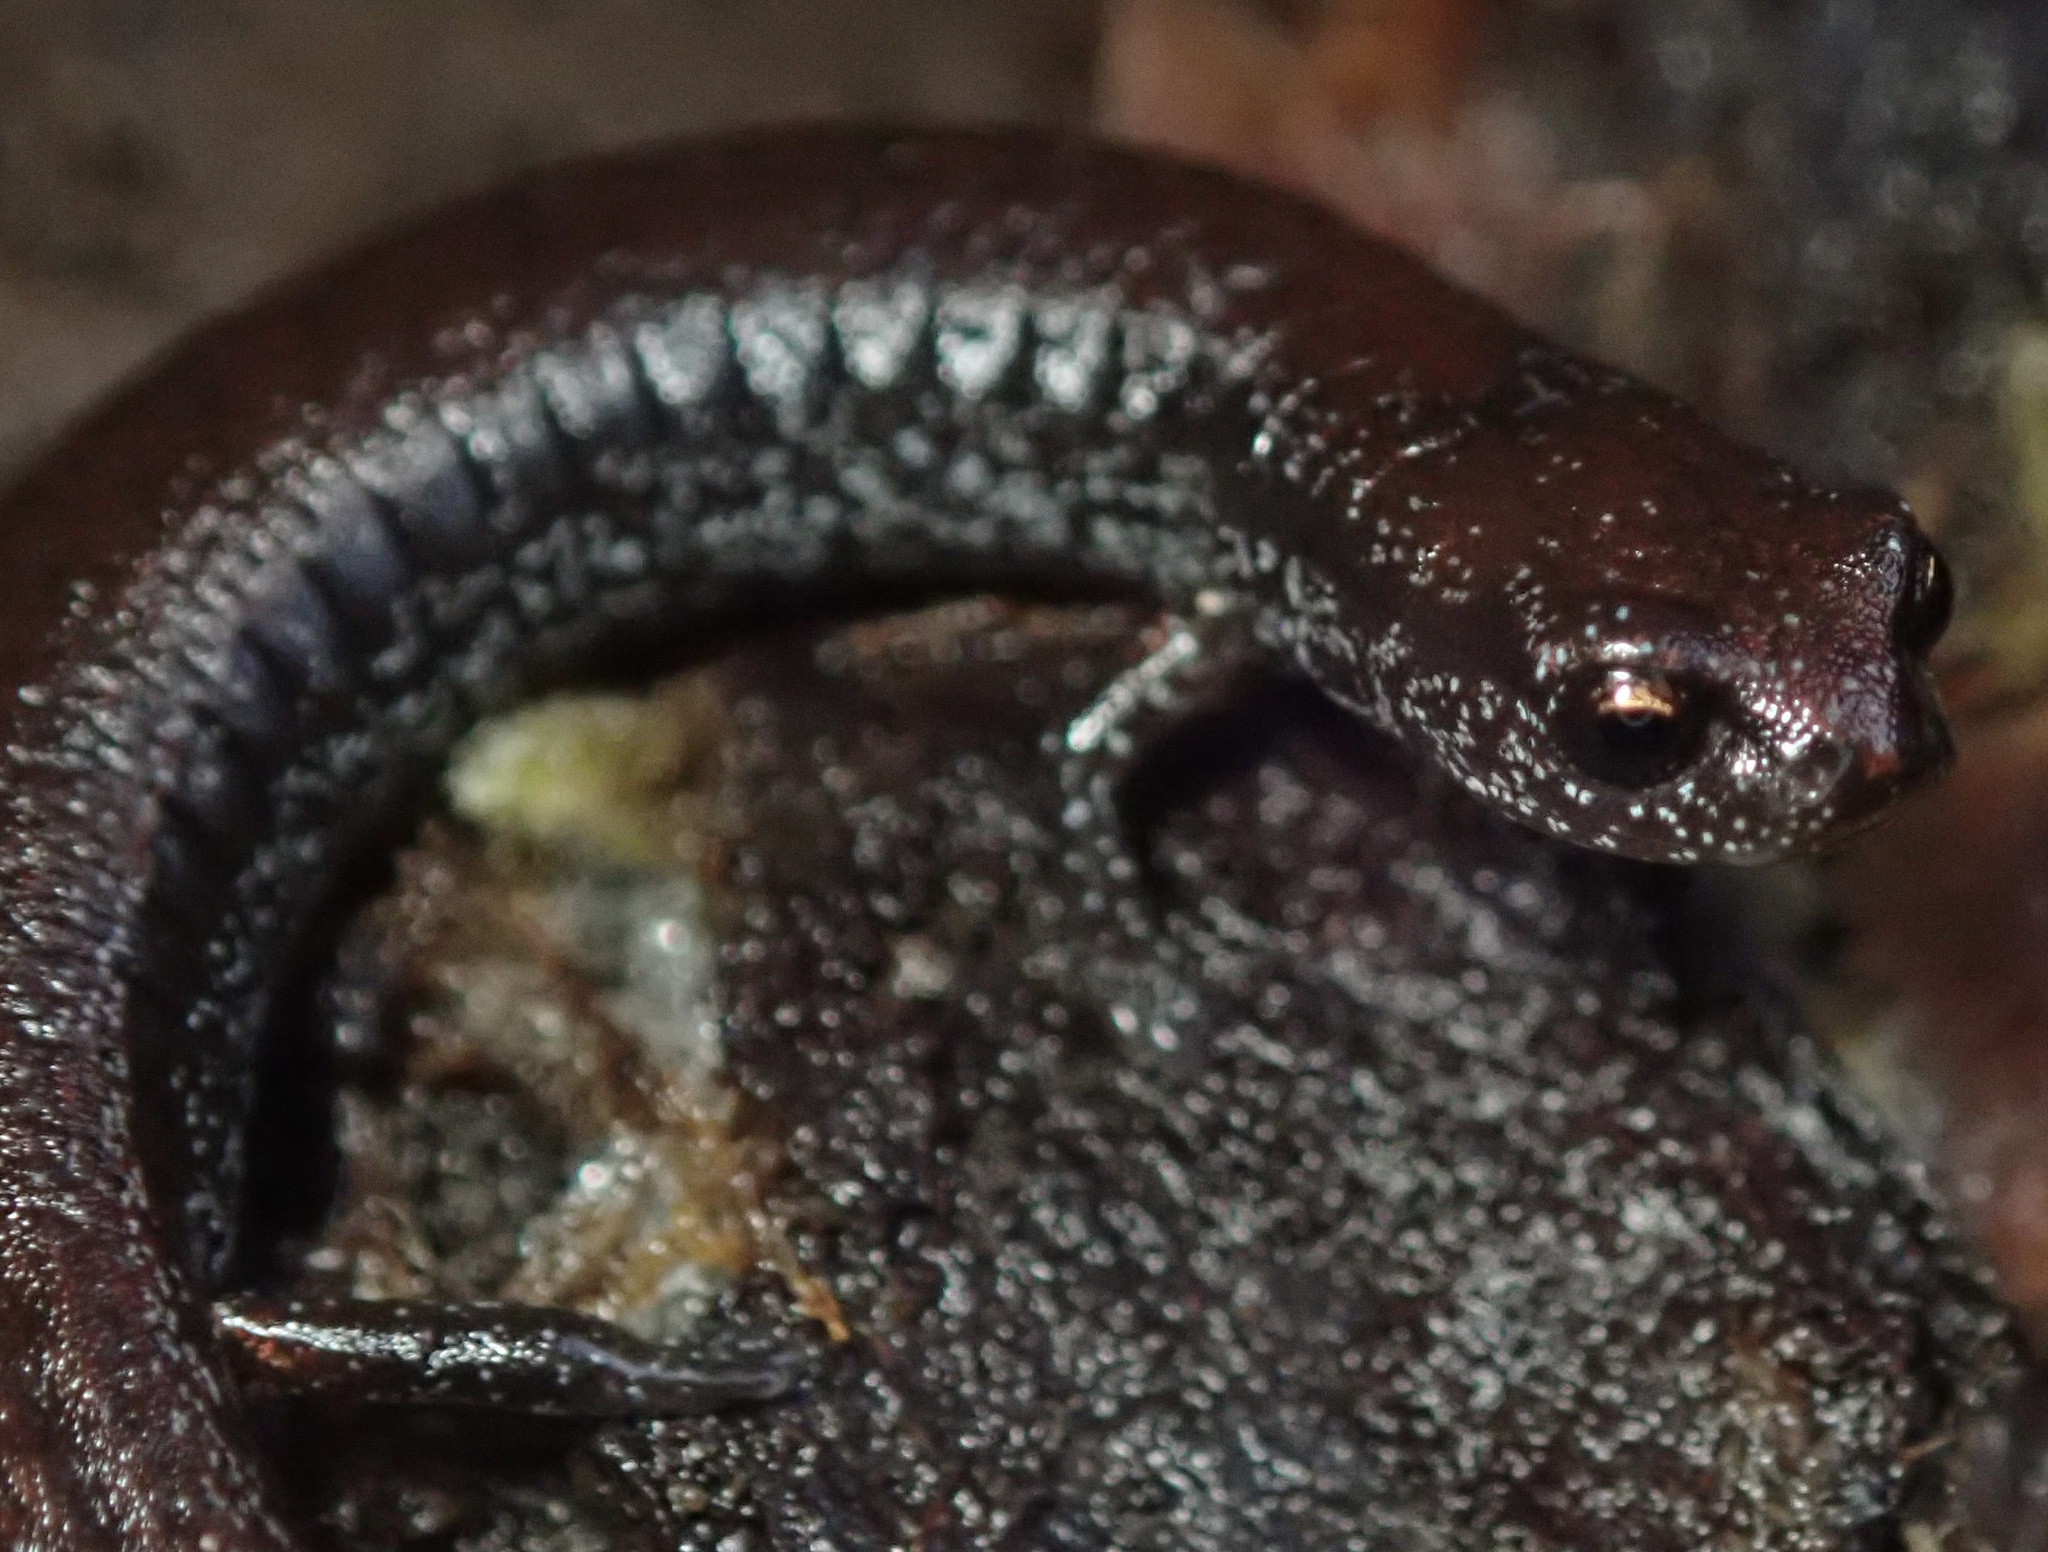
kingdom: Animalia
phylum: Chordata
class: Amphibia
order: Caudata
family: Plethodontidae
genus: Batrachoseps
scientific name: Batrachoseps attenuatus
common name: California slender salamander
